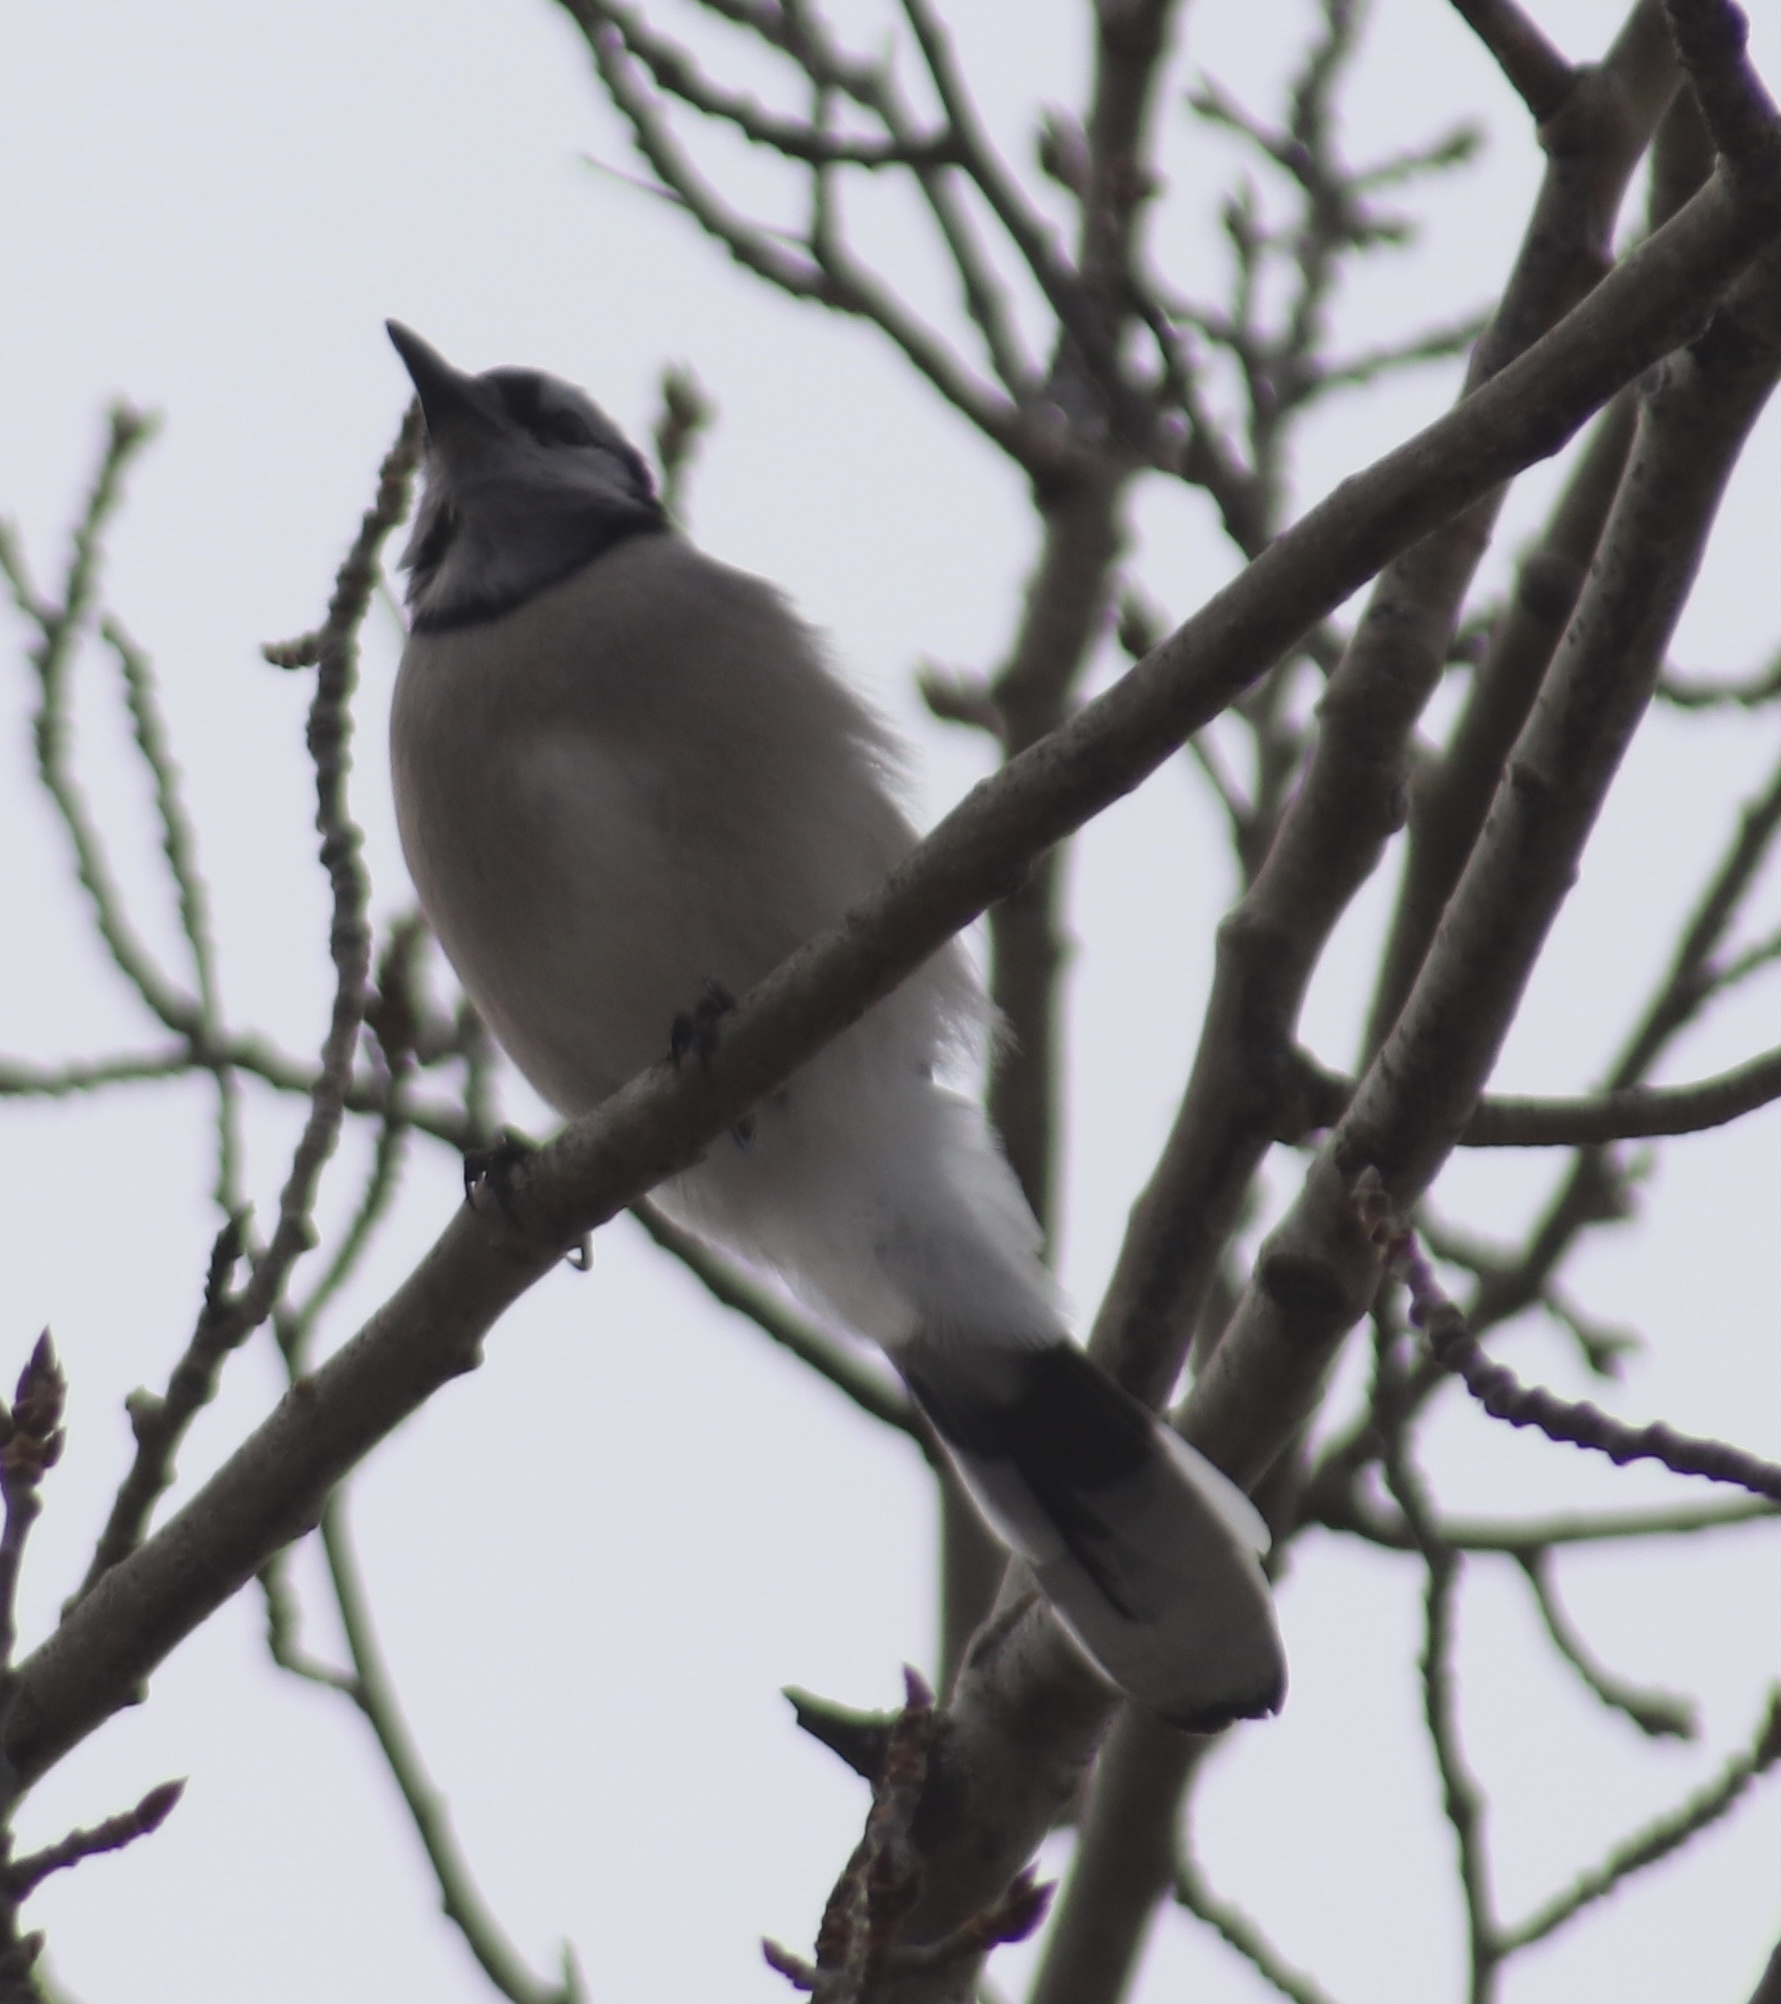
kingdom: Animalia
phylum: Chordata
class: Aves
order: Passeriformes
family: Corvidae
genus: Cyanocitta
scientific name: Cyanocitta cristata
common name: Blue jay
